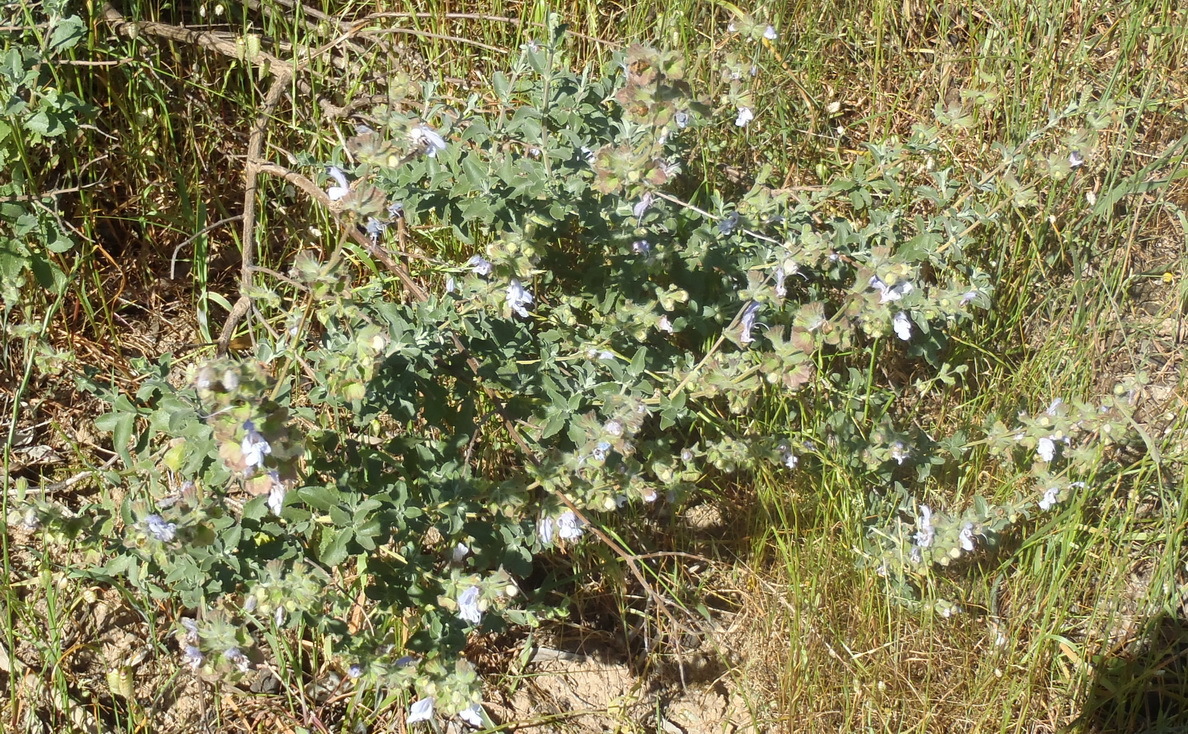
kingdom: Plantae
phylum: Tracheophyta
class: Magnoliopsida
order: Lamiales
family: Lamiaceae
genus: Salvia
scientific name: Salvia africana
